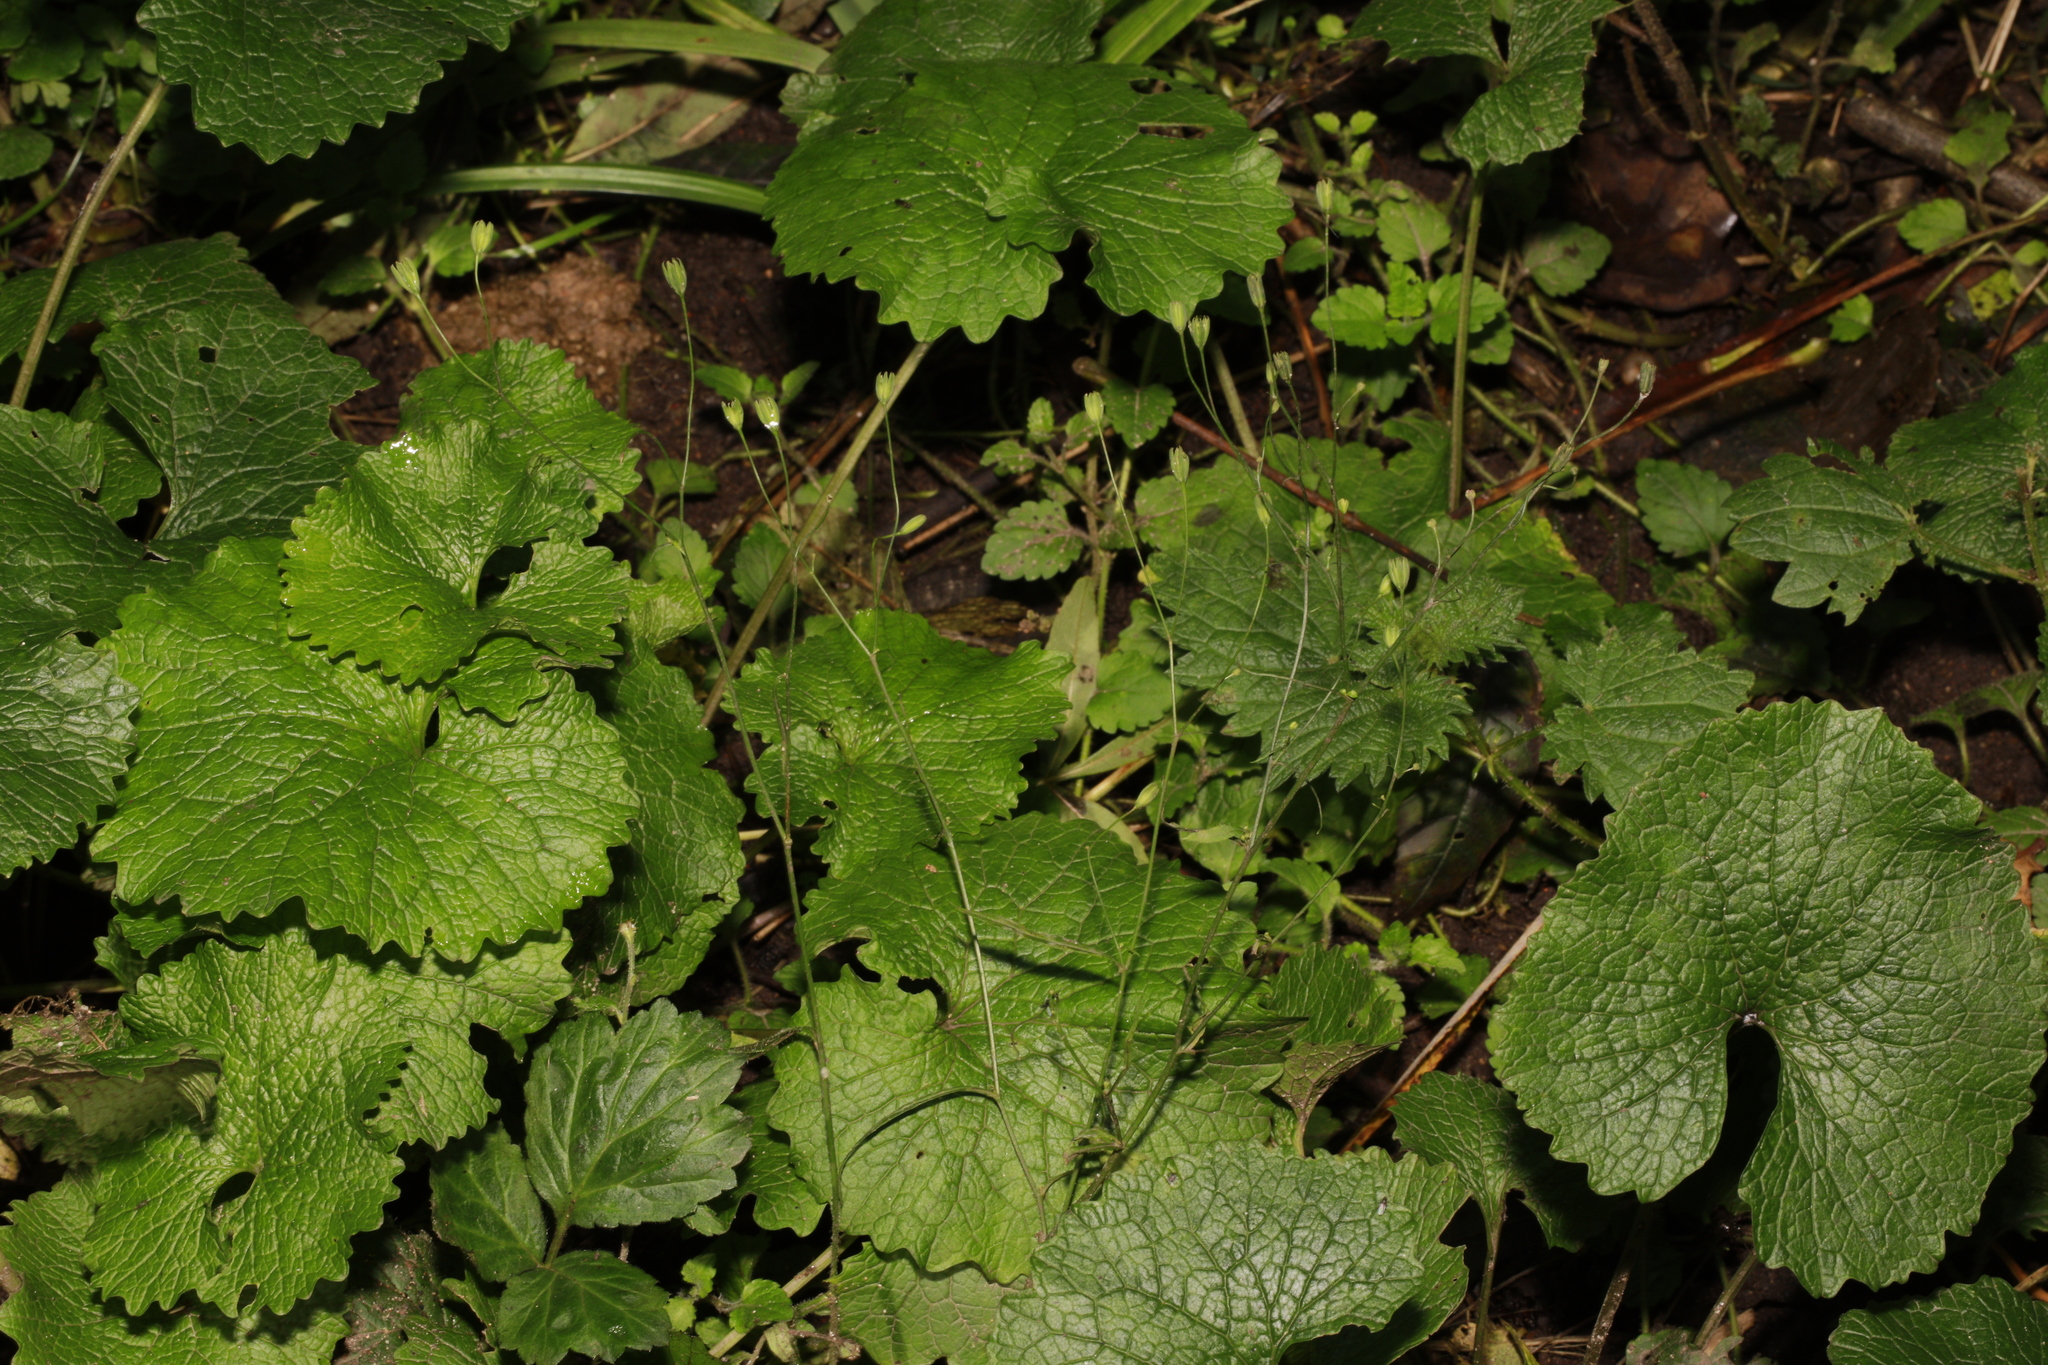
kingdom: Plantae
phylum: Tracheophyta
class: Magnoliopsida
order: Asterales
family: Asteraceae
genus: Lapsana
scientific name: Lapsana communis
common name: Nipplewort
